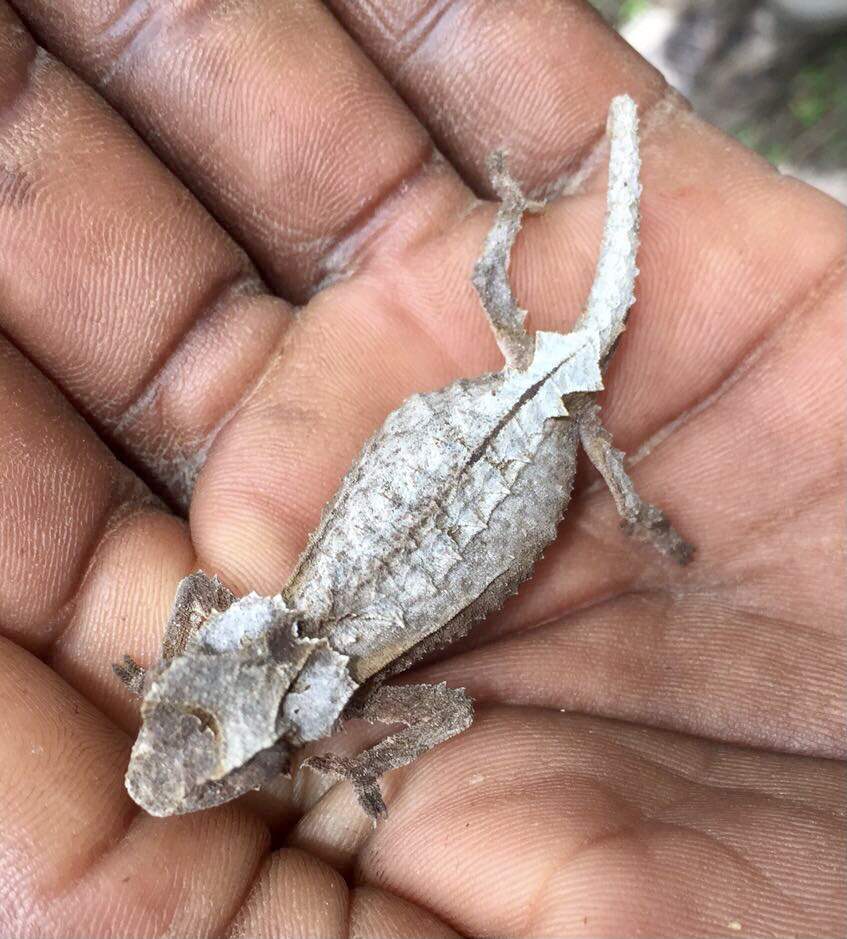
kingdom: Animalia
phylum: Chordata
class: Squamata
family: Chamaeleonidae
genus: Brookesia
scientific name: Brookesia brunoi
